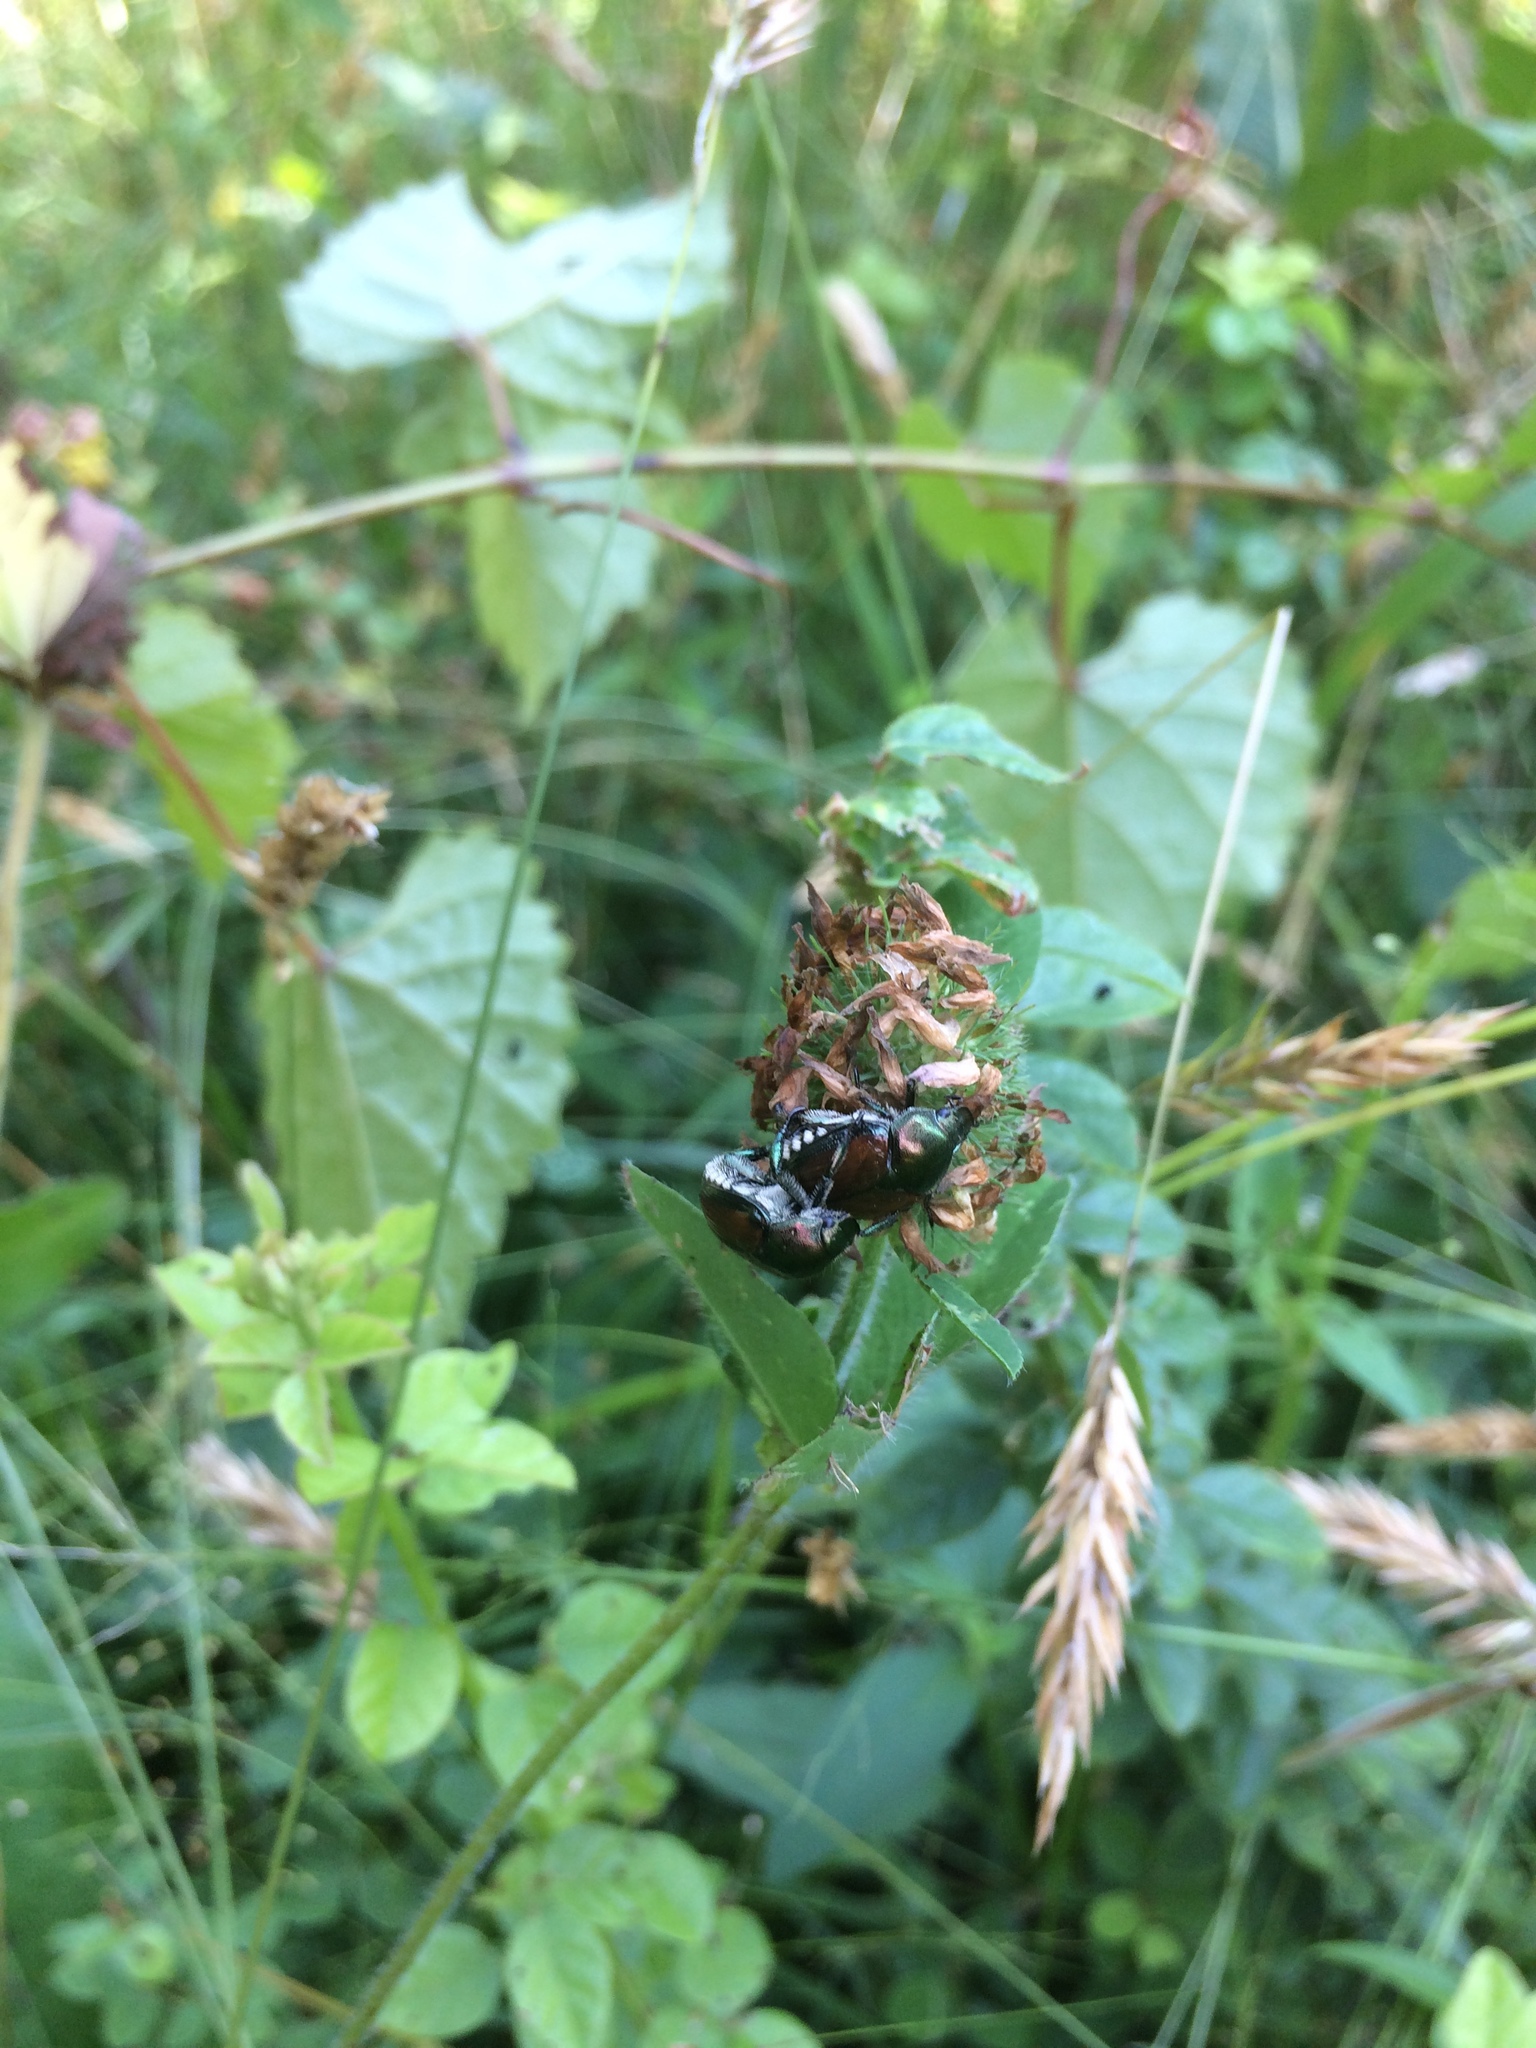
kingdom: Animalia
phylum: Arthropoda
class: Insecta
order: Coleoptera
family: Scarabaeidae
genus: Popillia
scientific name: Popillia japonica
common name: Japanese beetle
